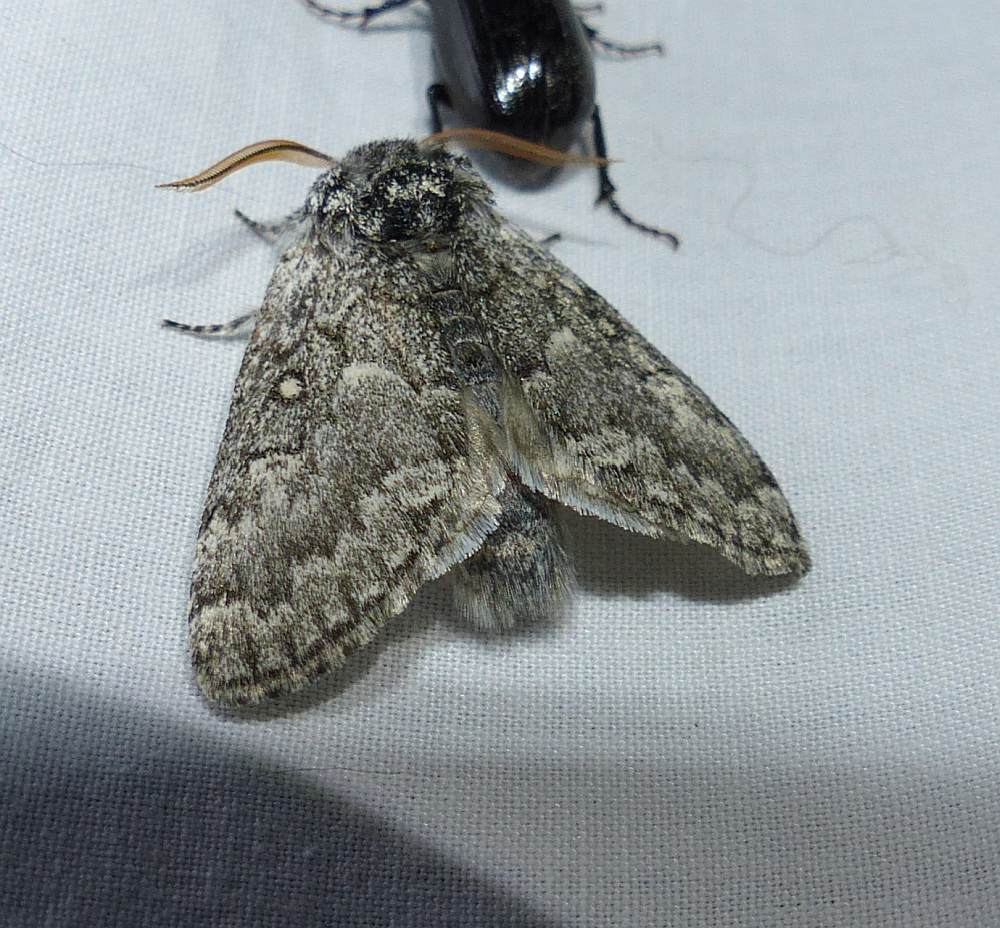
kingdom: Animalia
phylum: Arthropoda
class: Insecta
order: Lepidoptera
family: Noctuidae
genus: Colocasia
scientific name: Colocasia propinquilinea
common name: Close-banded demas
